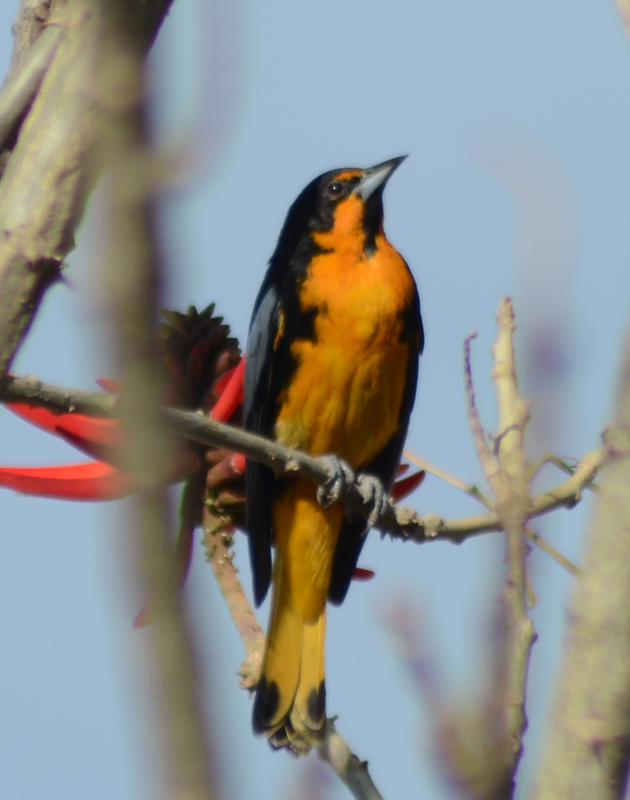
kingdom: Animalia
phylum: Chordata
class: Aves
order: Passeriformes
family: Icteridae
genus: Icterus
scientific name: Icterus abeillei
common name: Black-backed oriole
